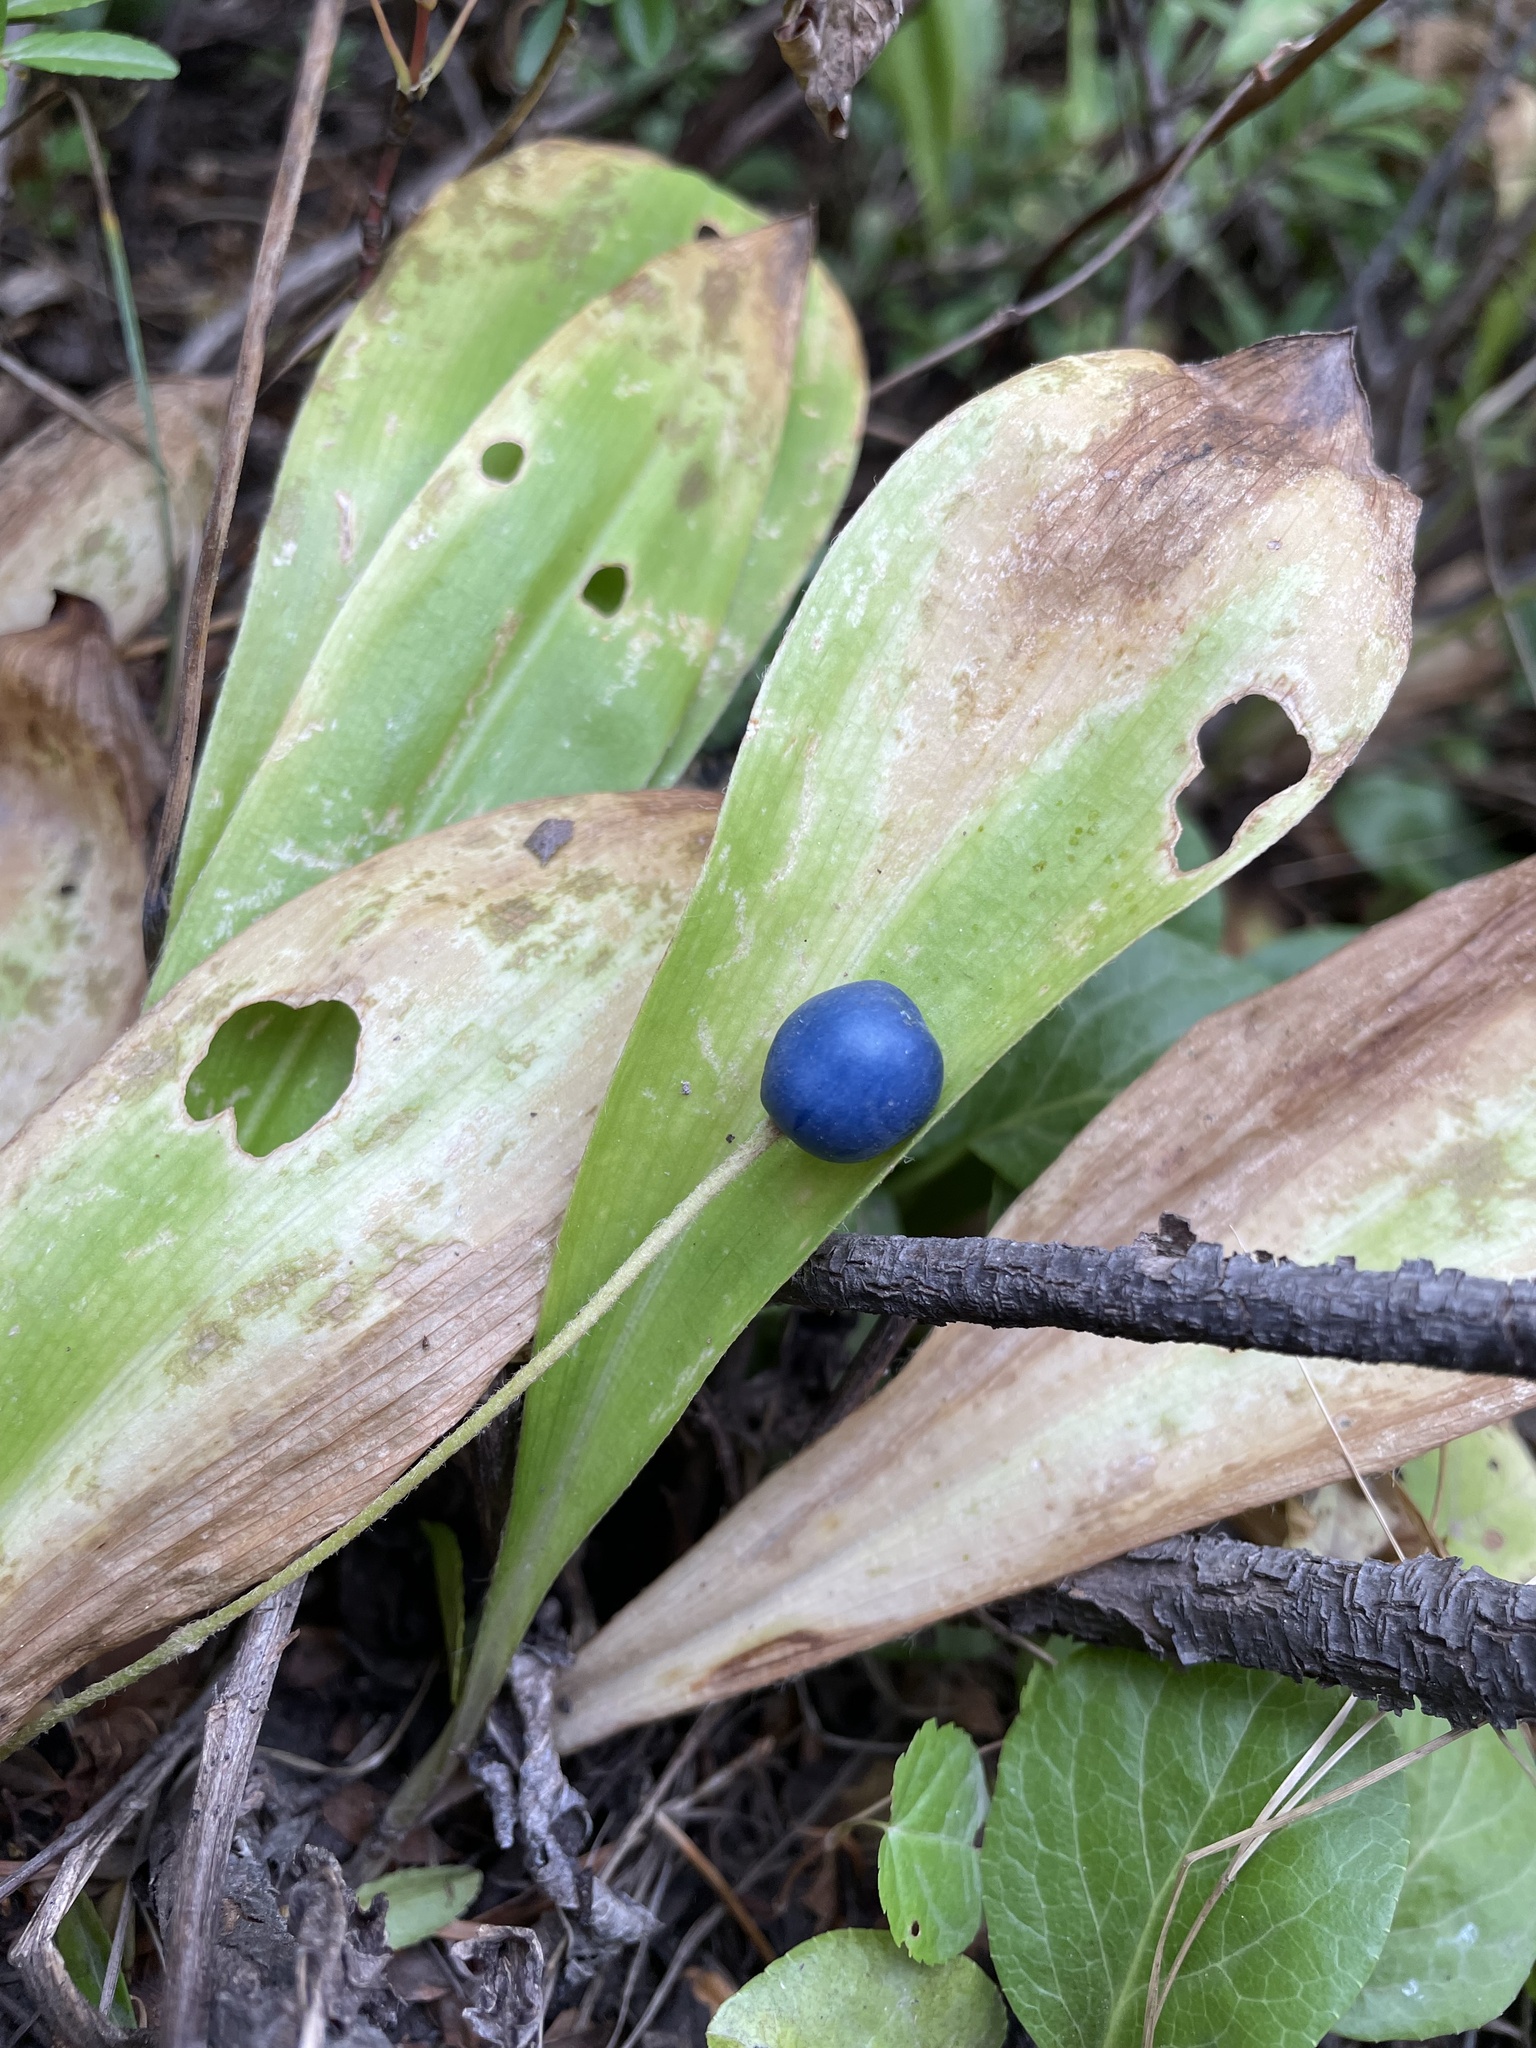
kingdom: Plantae
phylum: Tracheophyta
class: Liliopsida
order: Liliales
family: Liliaceae
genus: Clintonia
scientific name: Clintonia uniflora
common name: Queen's cup
